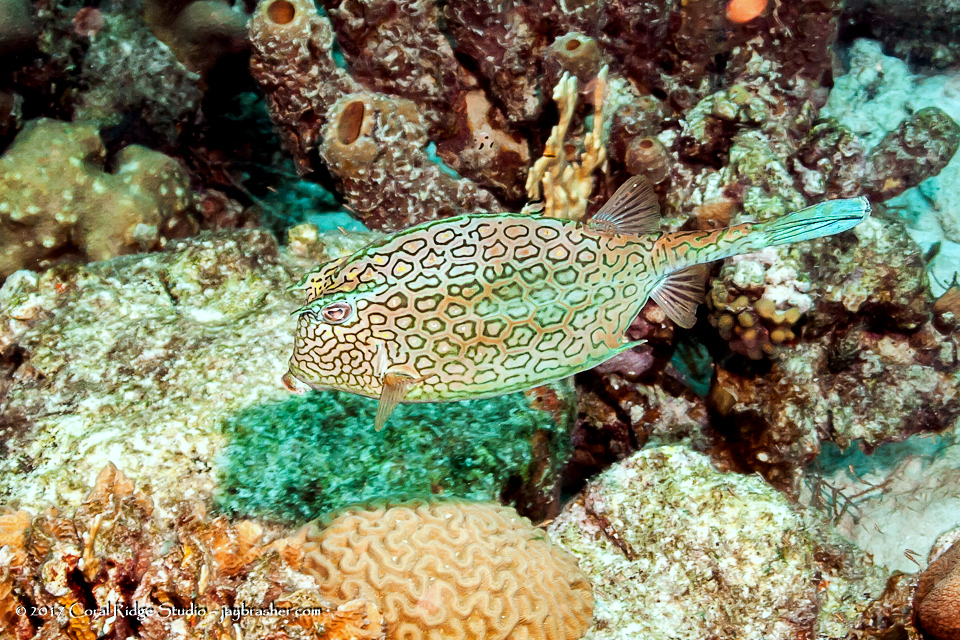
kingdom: Animalia
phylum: Chordata
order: Tetraodontiformes
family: Ostraciidae
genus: Acanthostracion
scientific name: Acanthostracion polygonius
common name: Honeycomb cowfish
